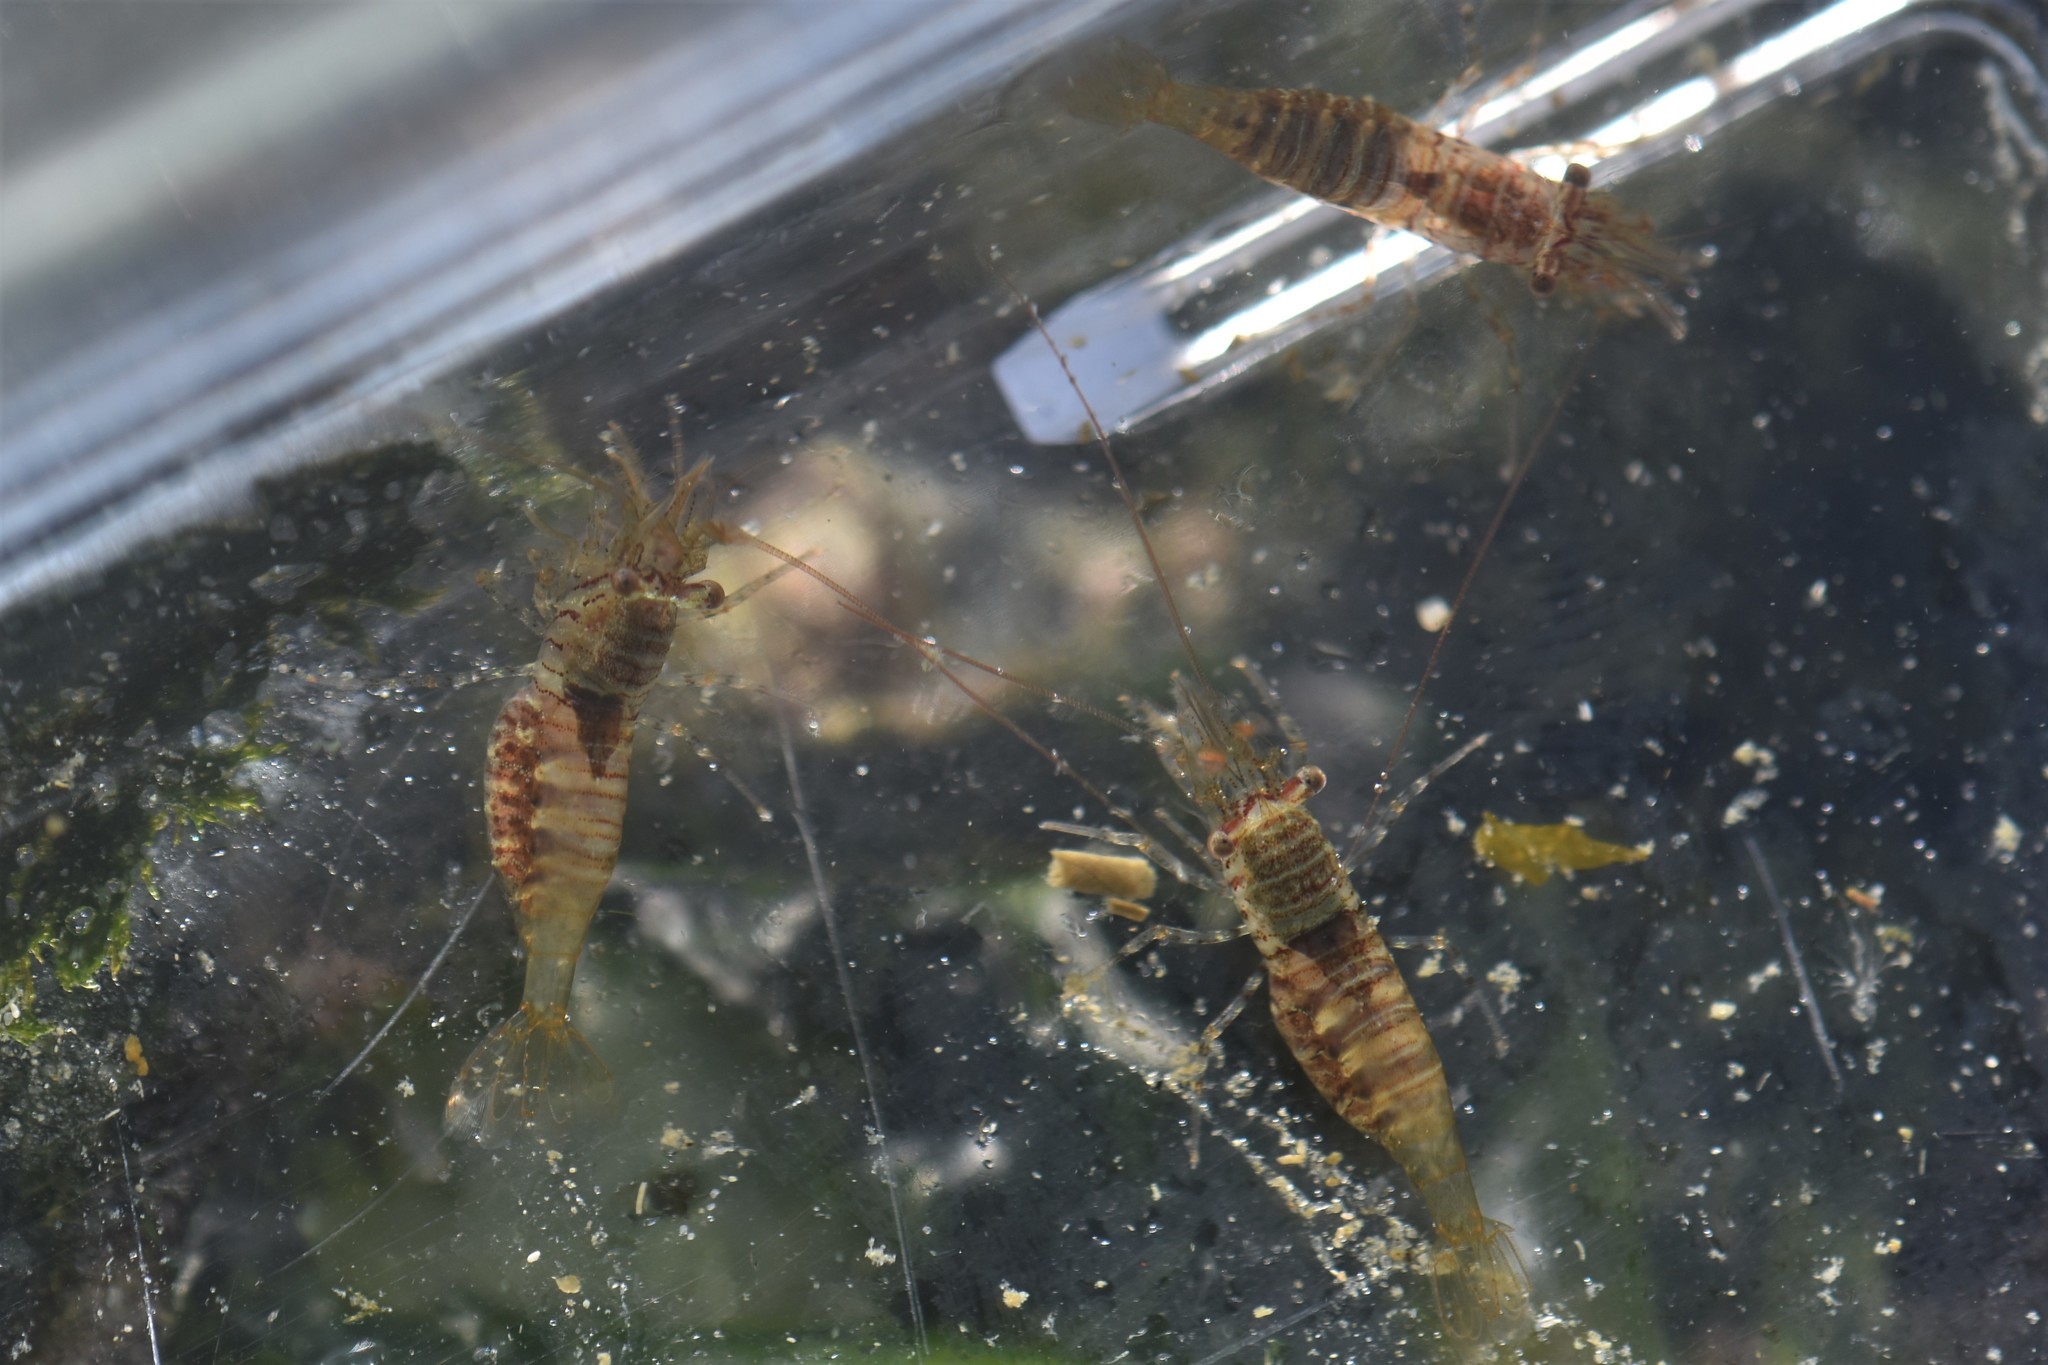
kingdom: Animalia
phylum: Arthropoda
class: Malacostraca
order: Decapoda
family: Thoridae
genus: Heptacarpus
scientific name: Heptacarpus pugettensis
